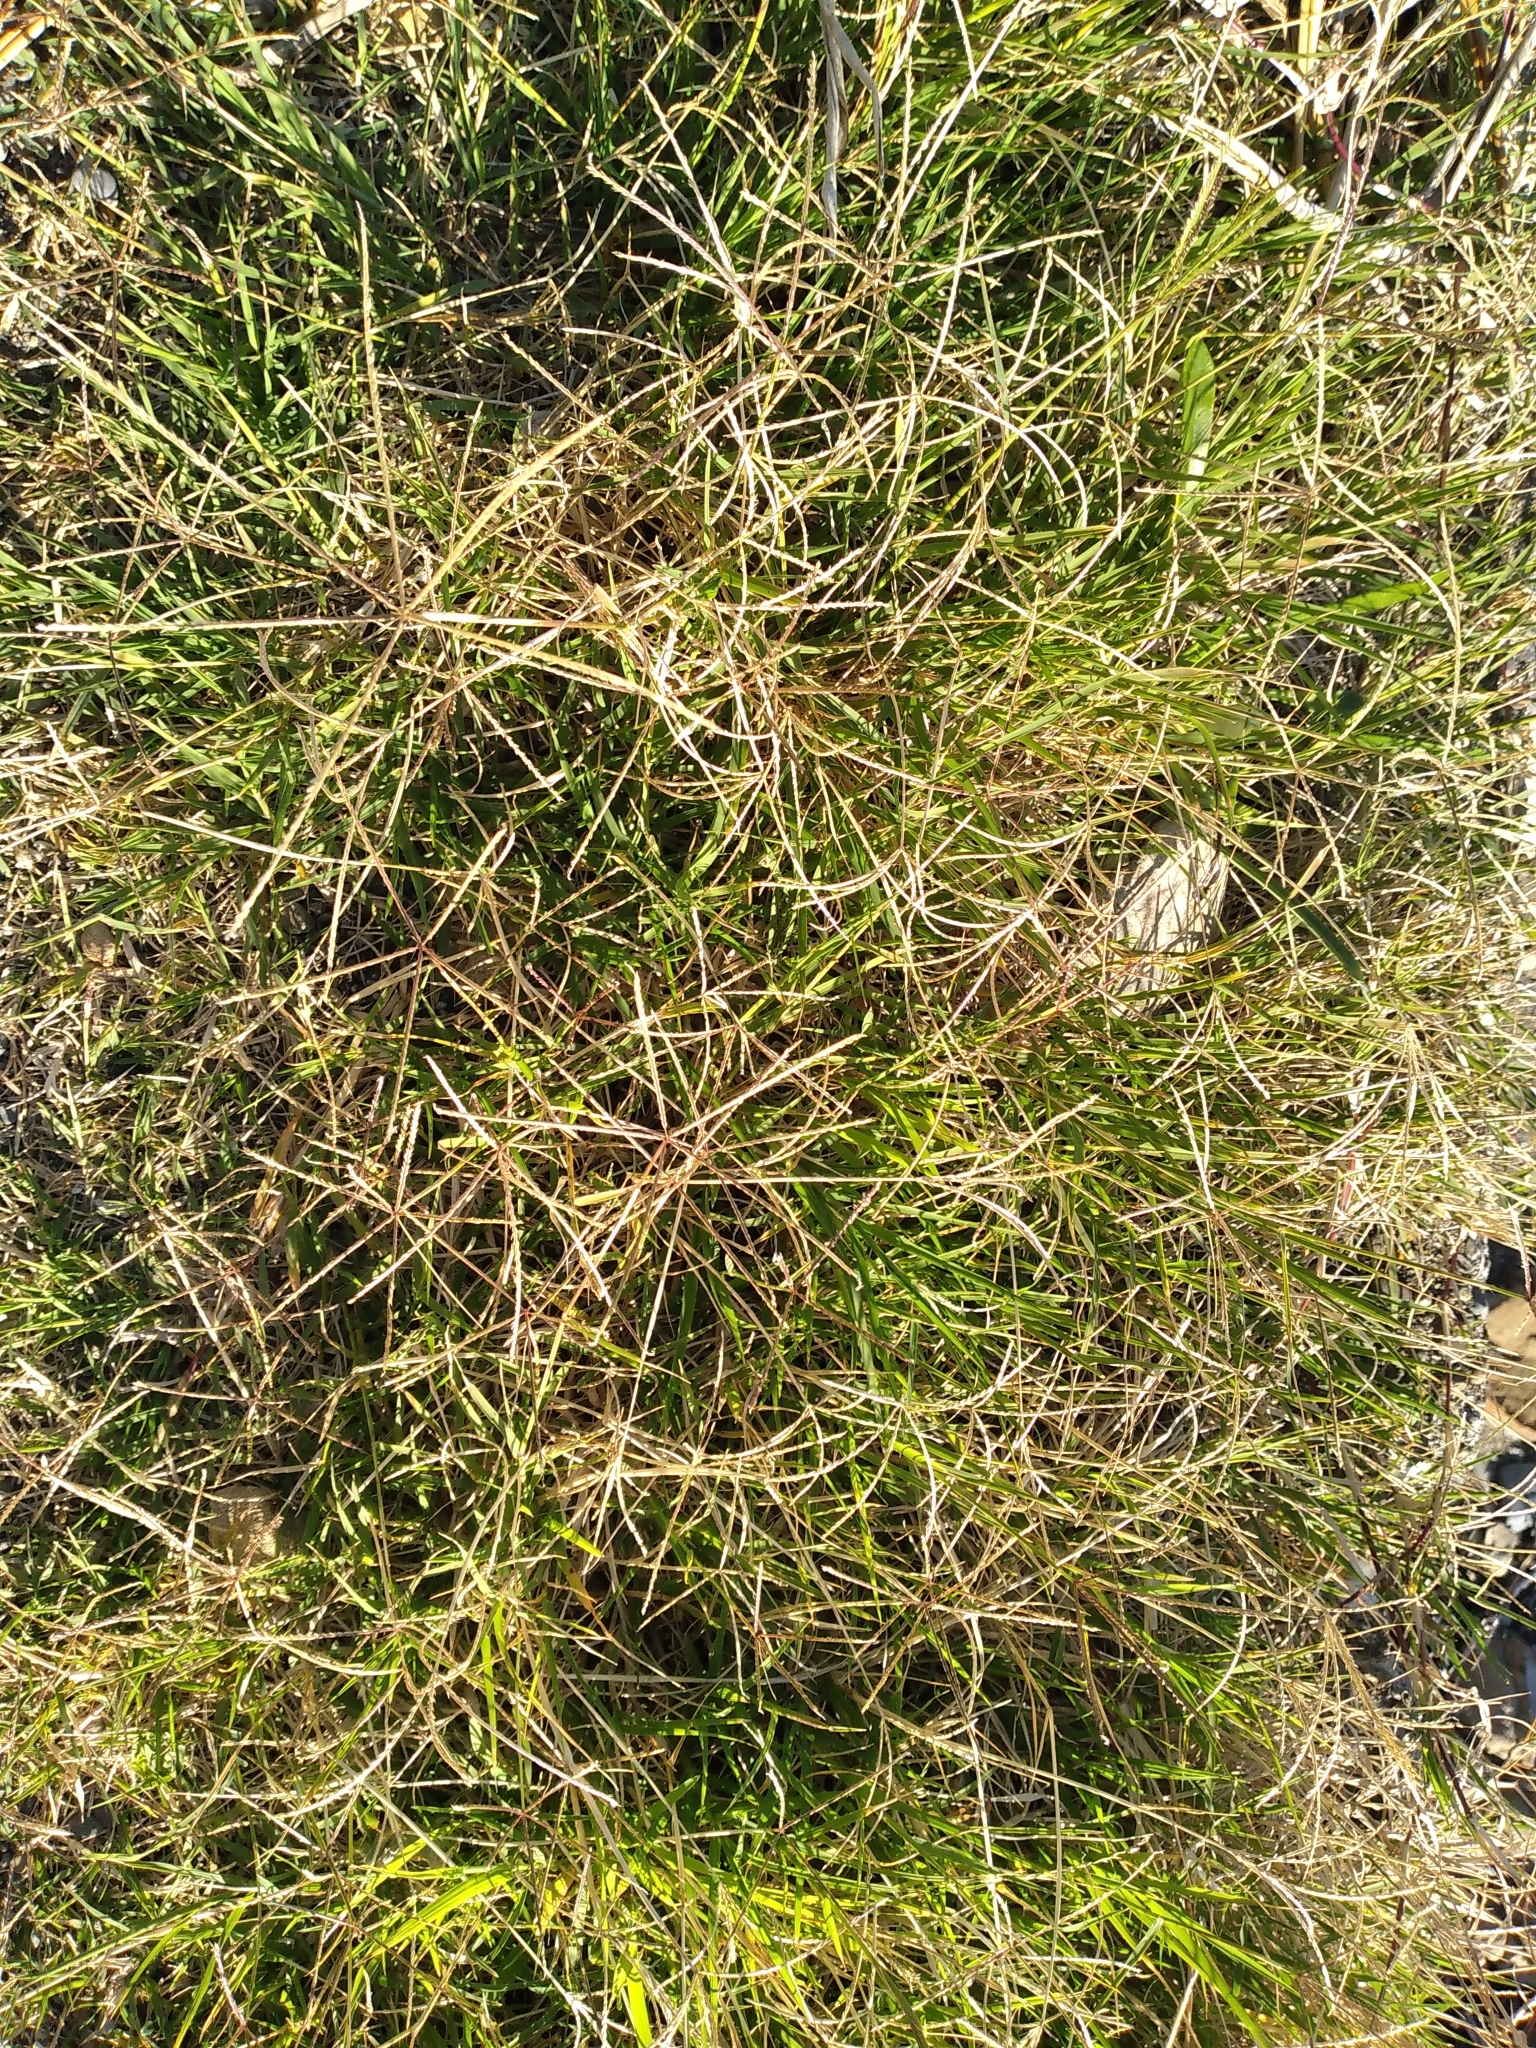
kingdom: Plantae
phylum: Tracheophyta
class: Liliopsida
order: Poales
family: Poaceae
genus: Cynodon
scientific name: Cynodon dactylon
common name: Bermuda grass
